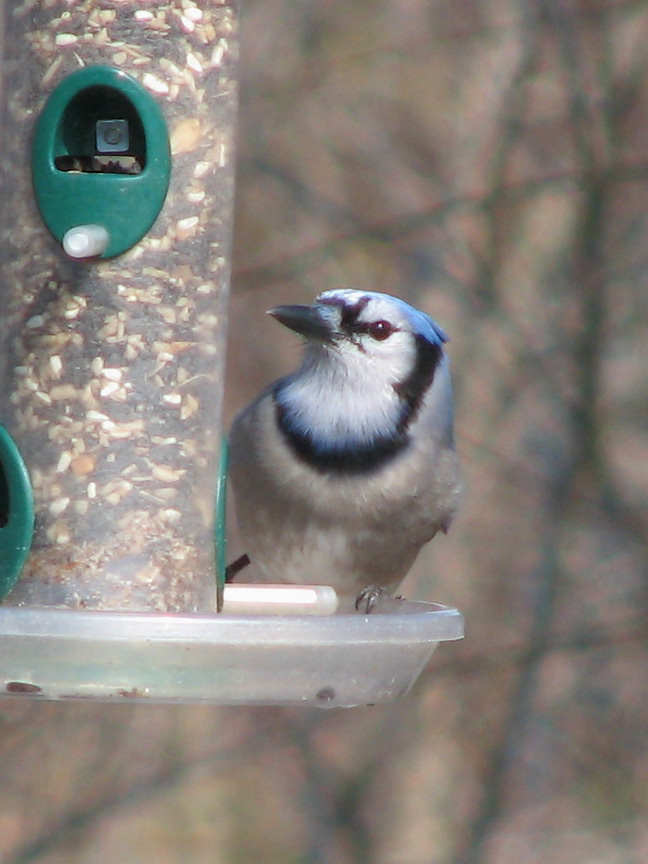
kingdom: Animalia
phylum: Chordata
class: Aves
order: Passeriformes
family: Corvidae
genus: Cyanocitta
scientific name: Cyanocitta cristata
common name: Blue jay
